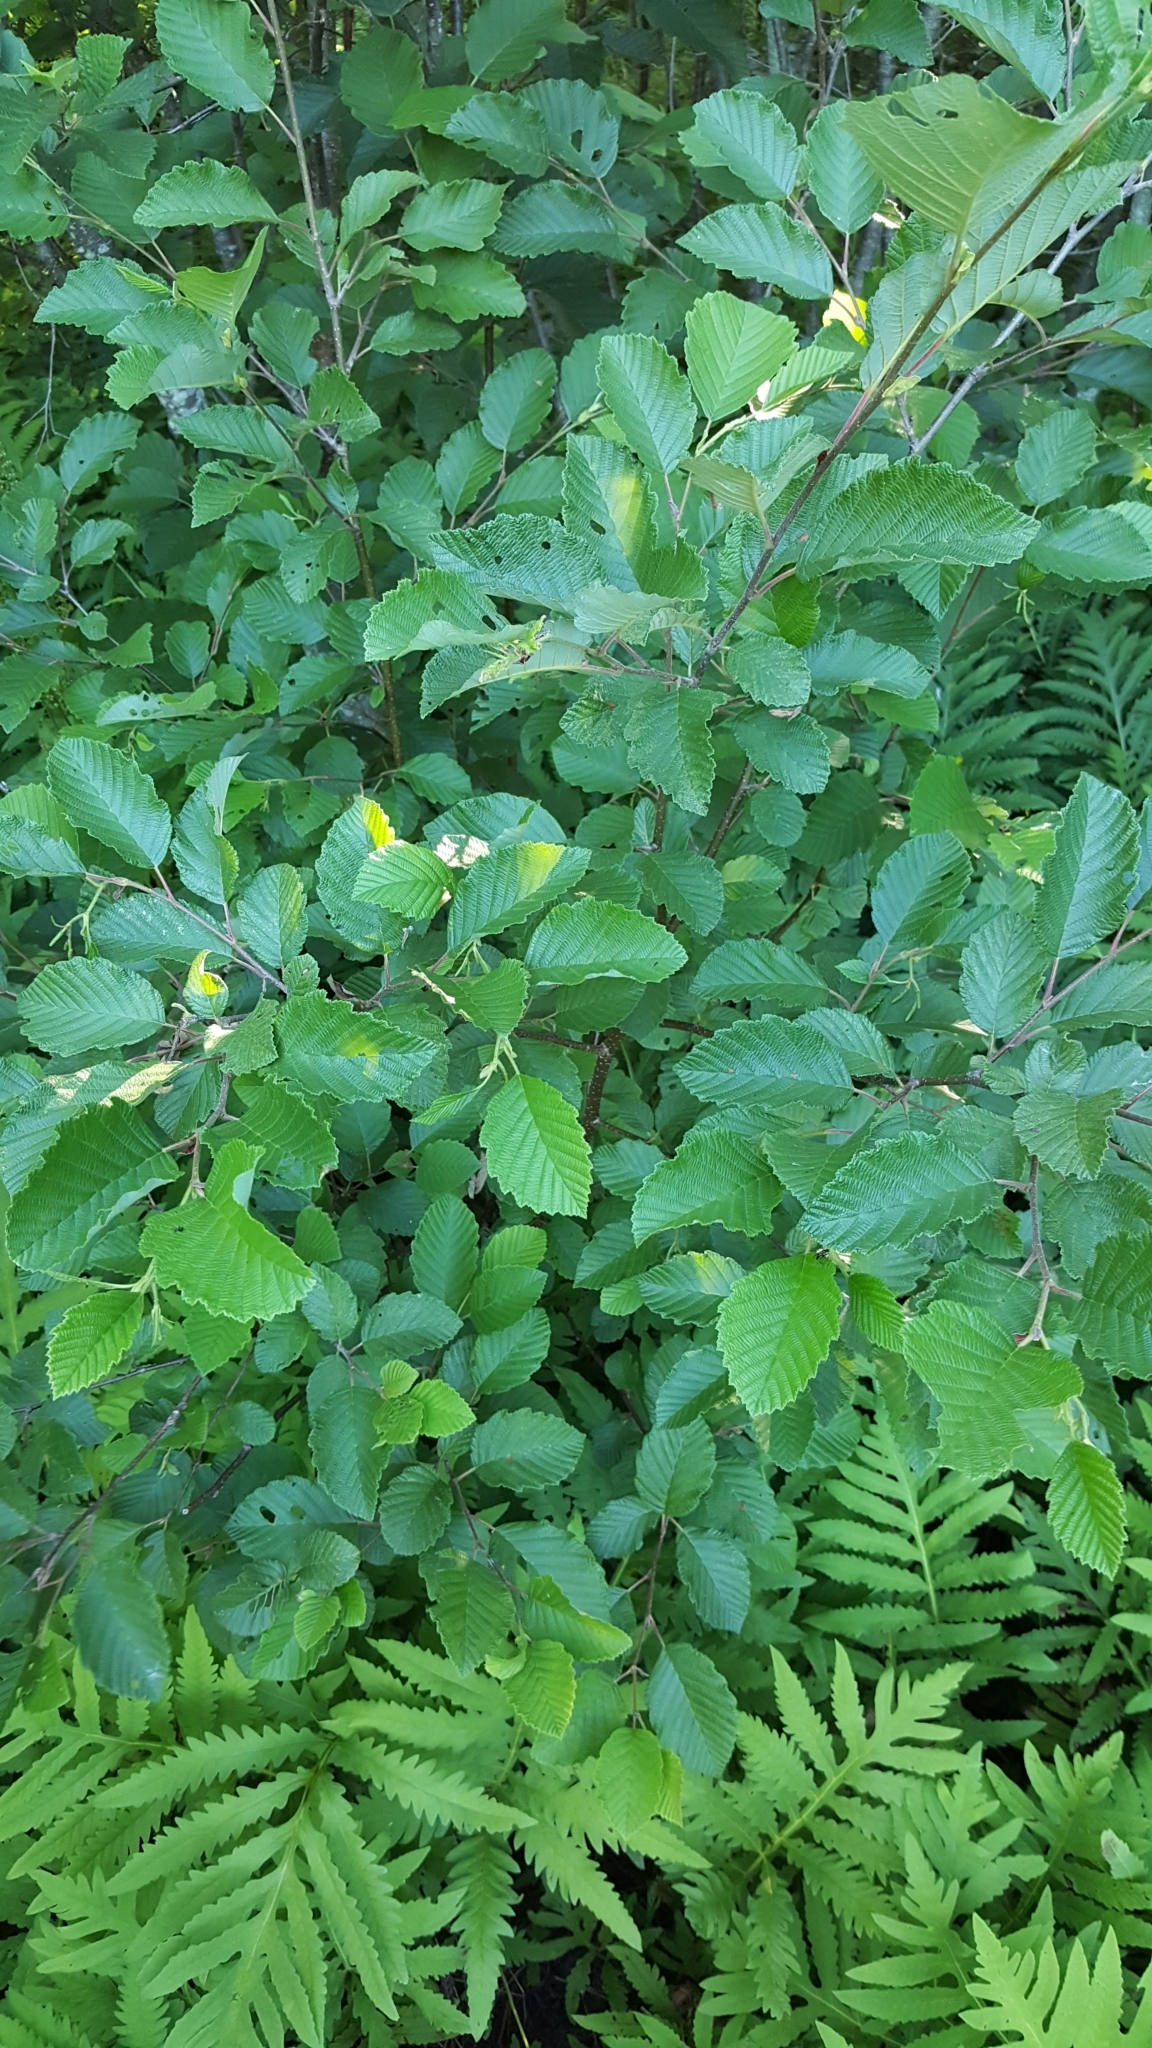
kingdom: Plantae
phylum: Tracheophyta
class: Polypodiopsida
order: Polypodiales
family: Onocleaceae
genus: Onoclea
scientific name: Onoclea sensibilis
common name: Sensitive fern
